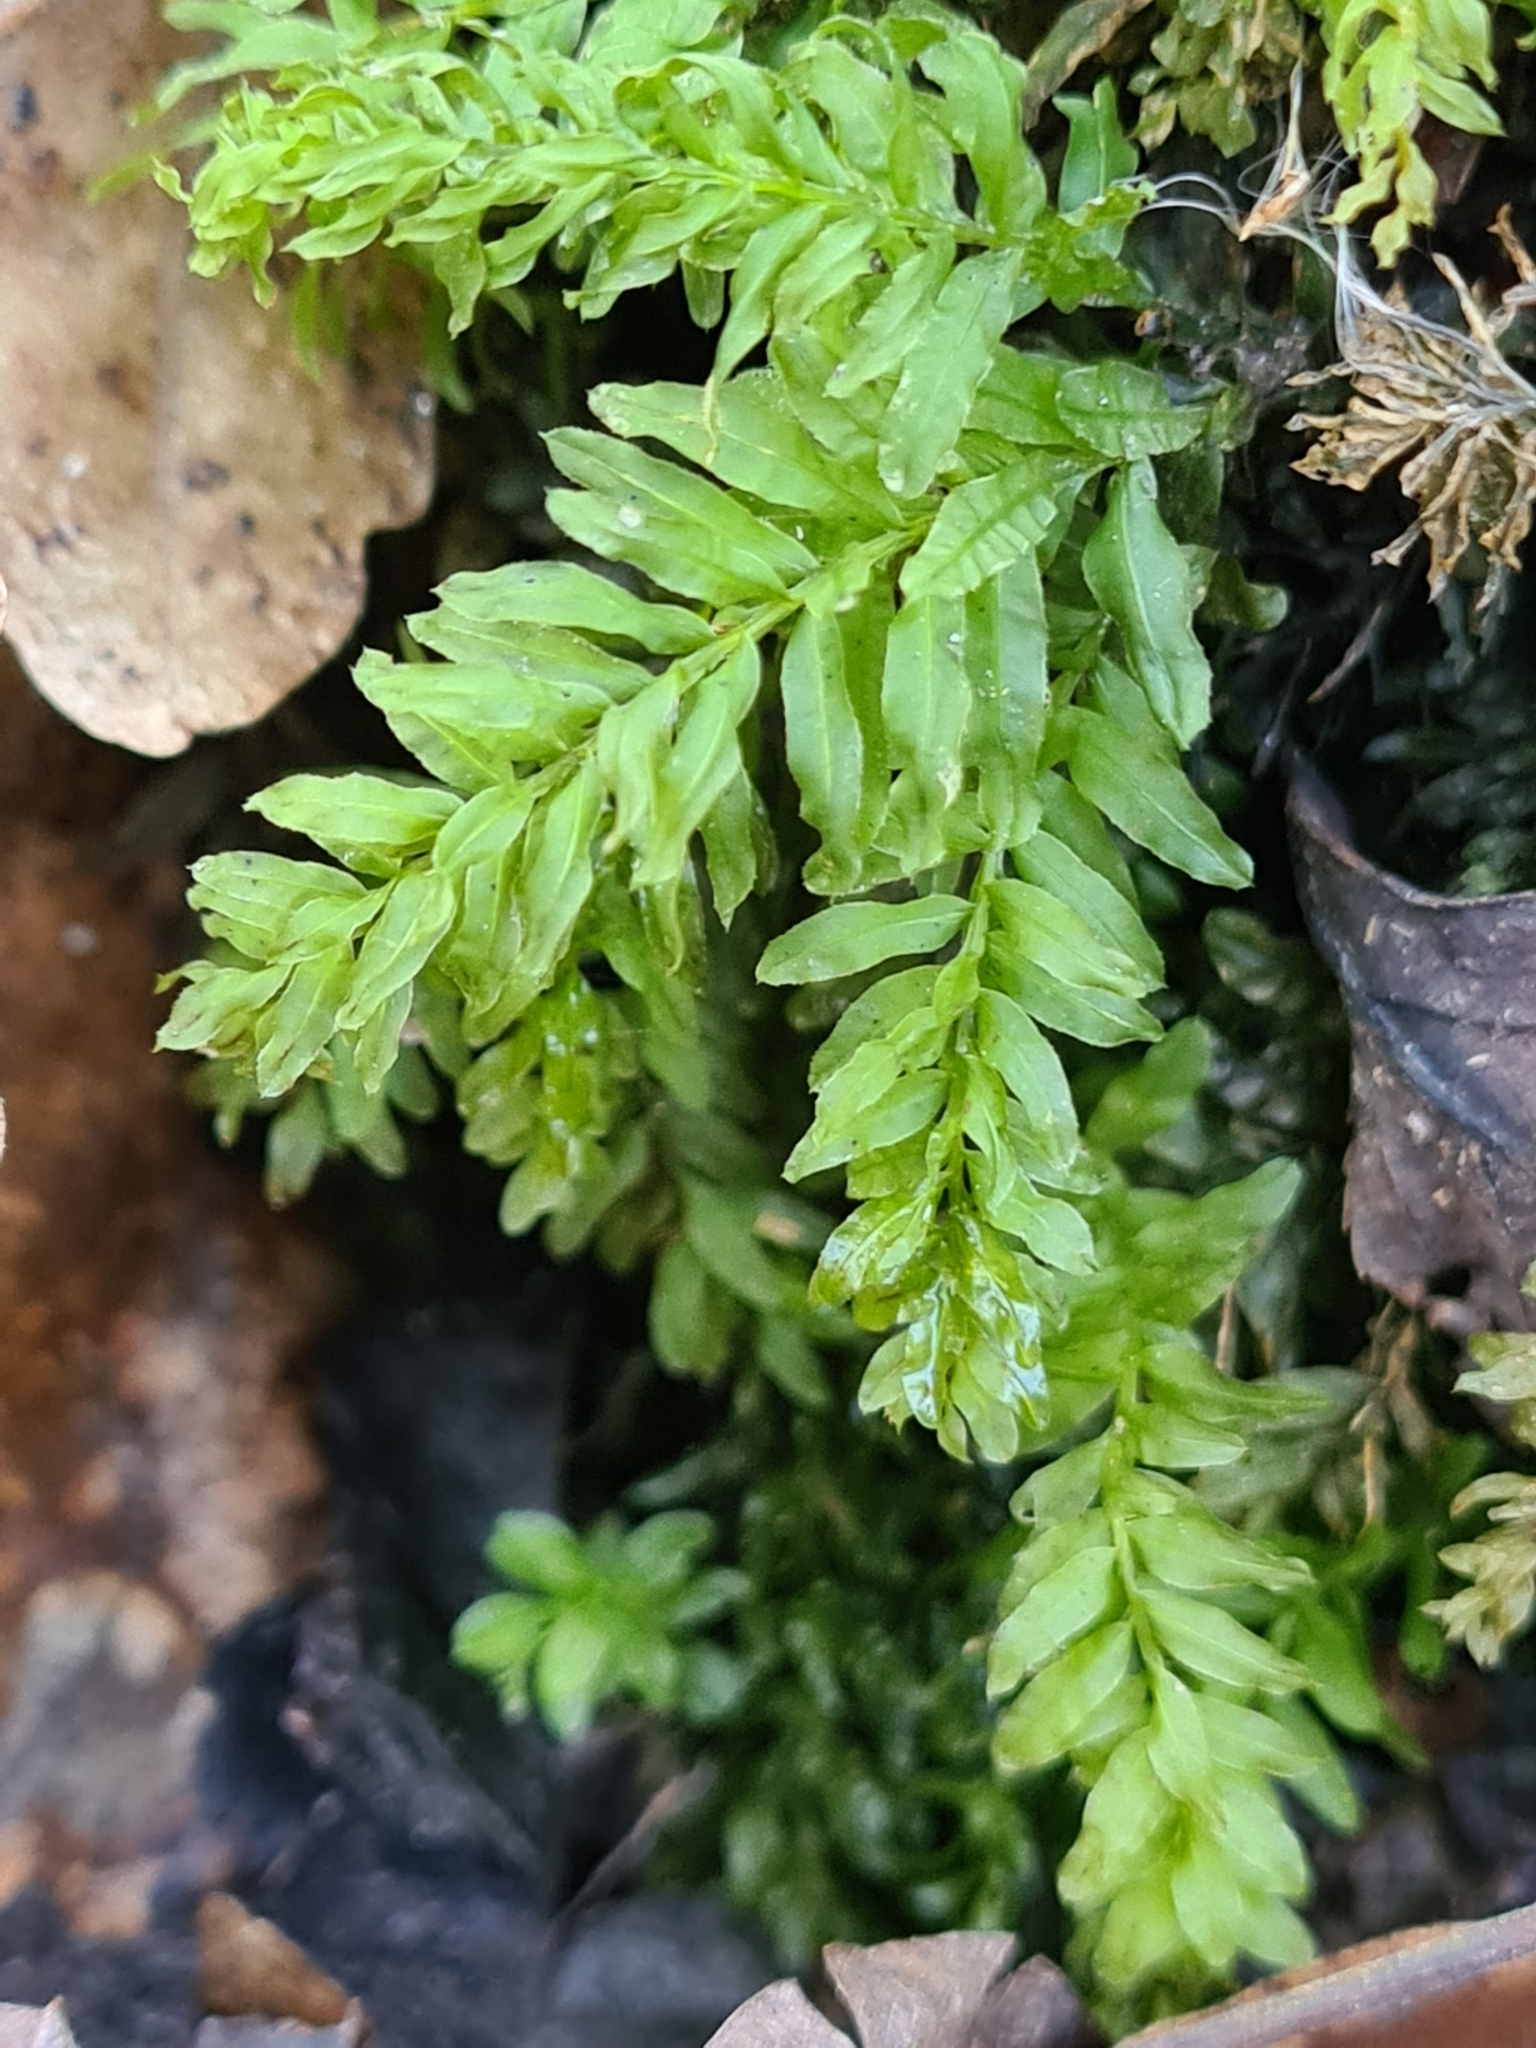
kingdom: Plantae
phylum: Bryophyta
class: Bryopsida
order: Bryales
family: Mniaceae
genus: Plagiomnium
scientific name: Plagiomnium undulatum
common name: Hart's-tongue thyme-moss
